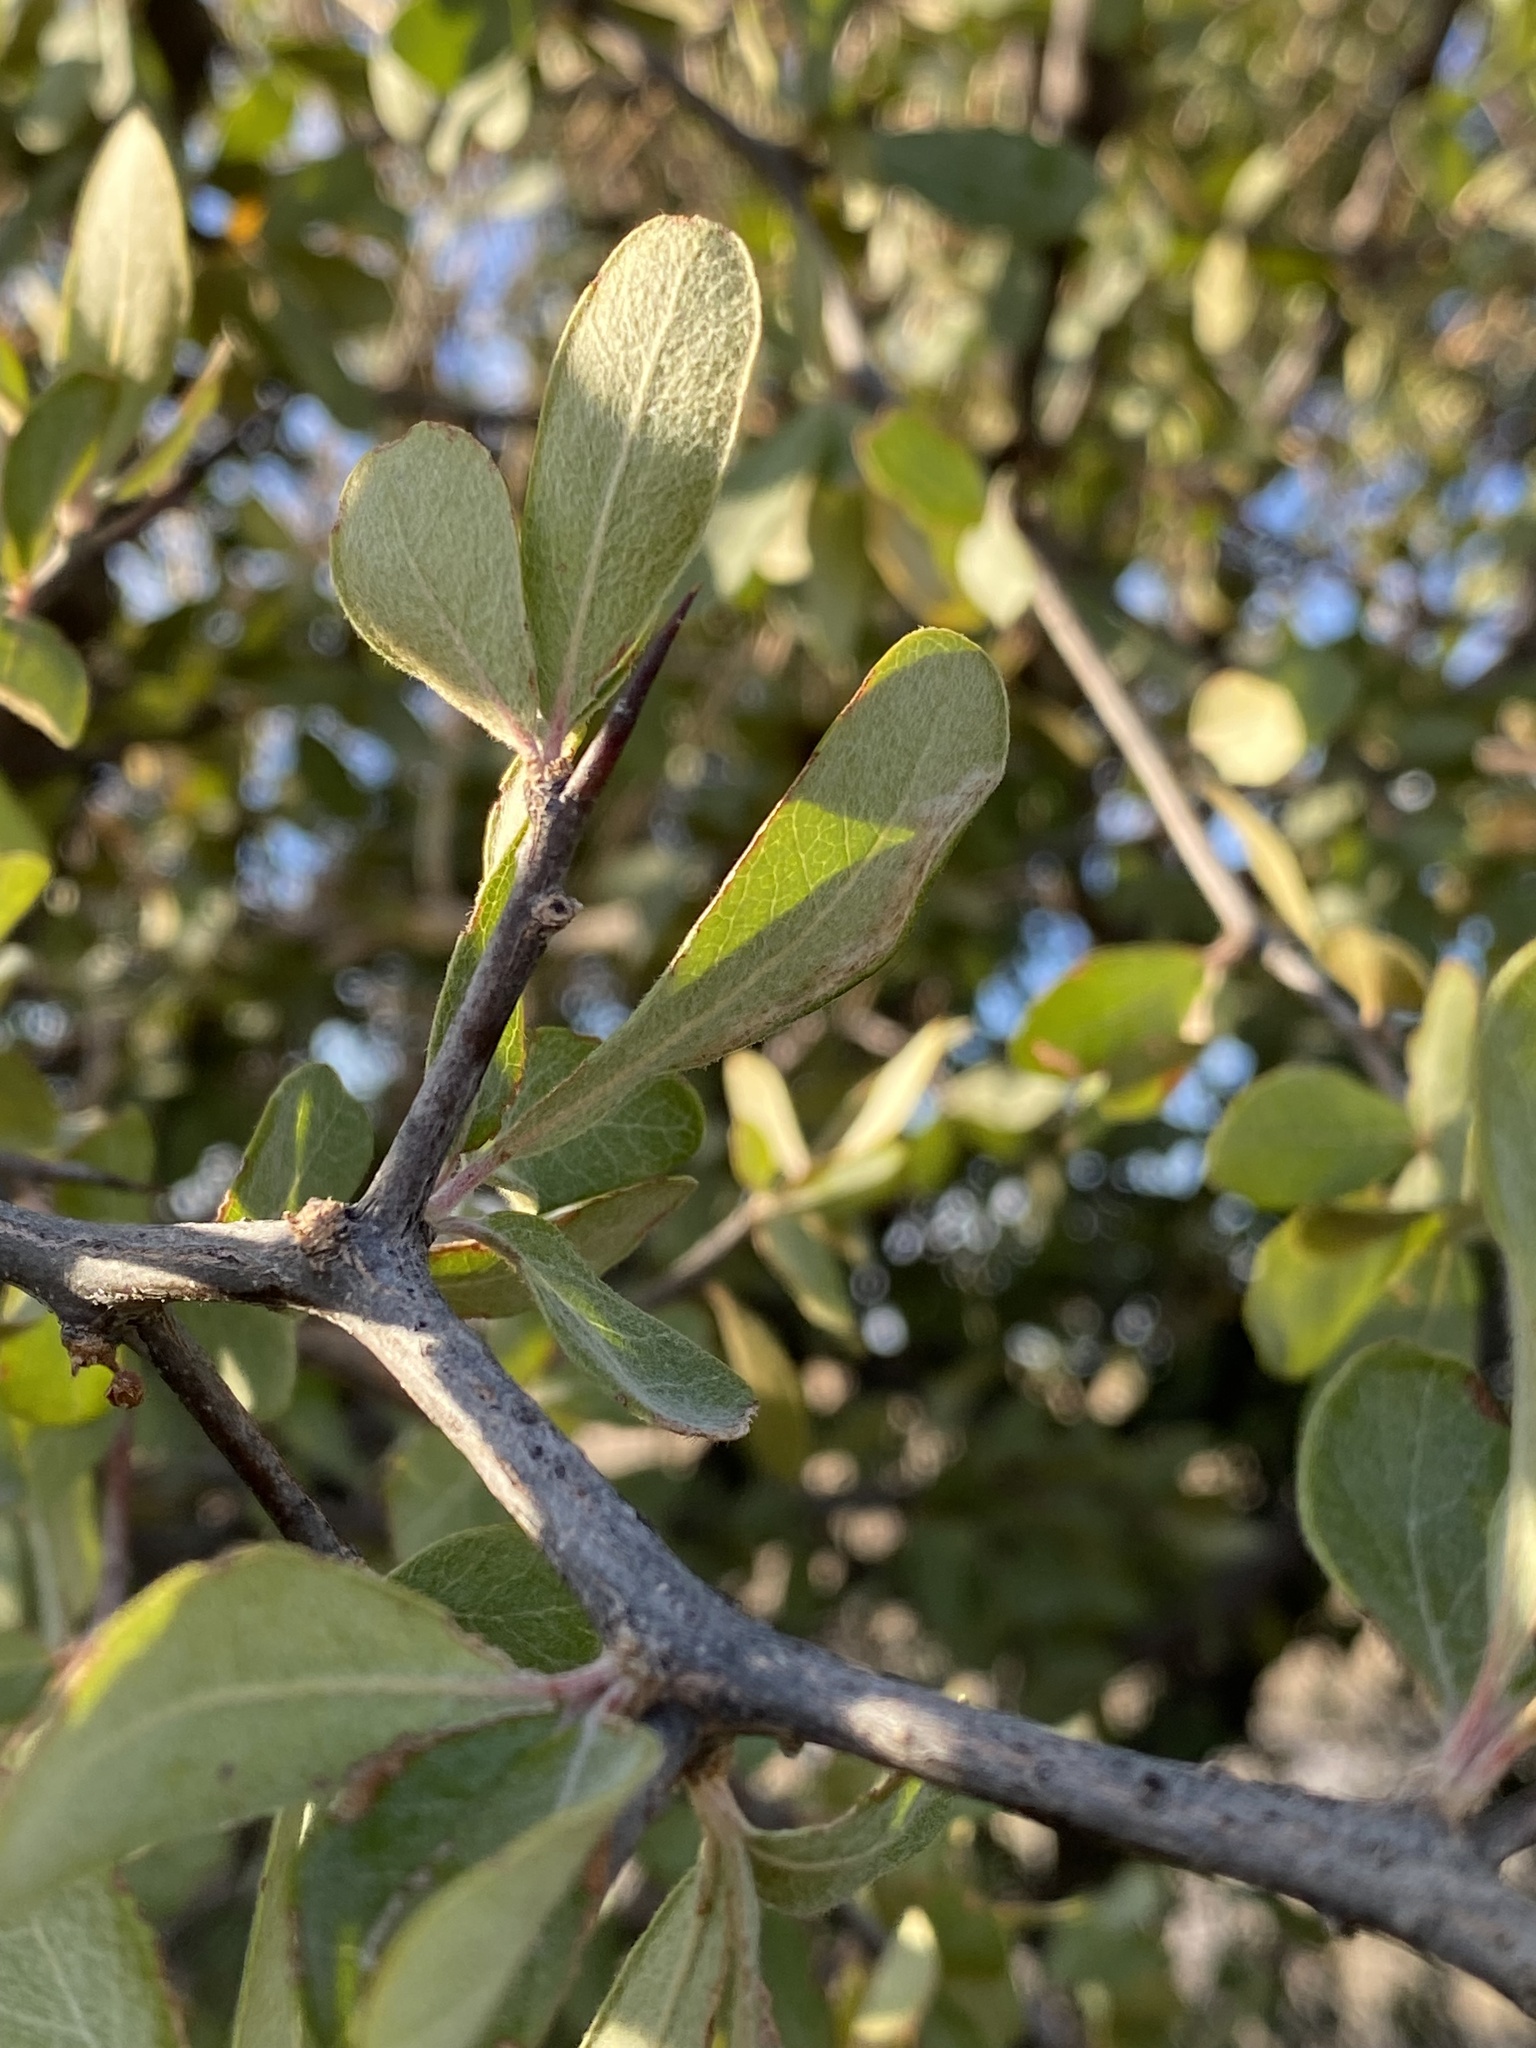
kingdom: Plantae
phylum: Tracheophyta
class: Magnoliopsida
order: Ericales
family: Sapotaceae
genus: Sideroxylon
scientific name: Sideroxylon lanuginosum
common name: Chittamwood
